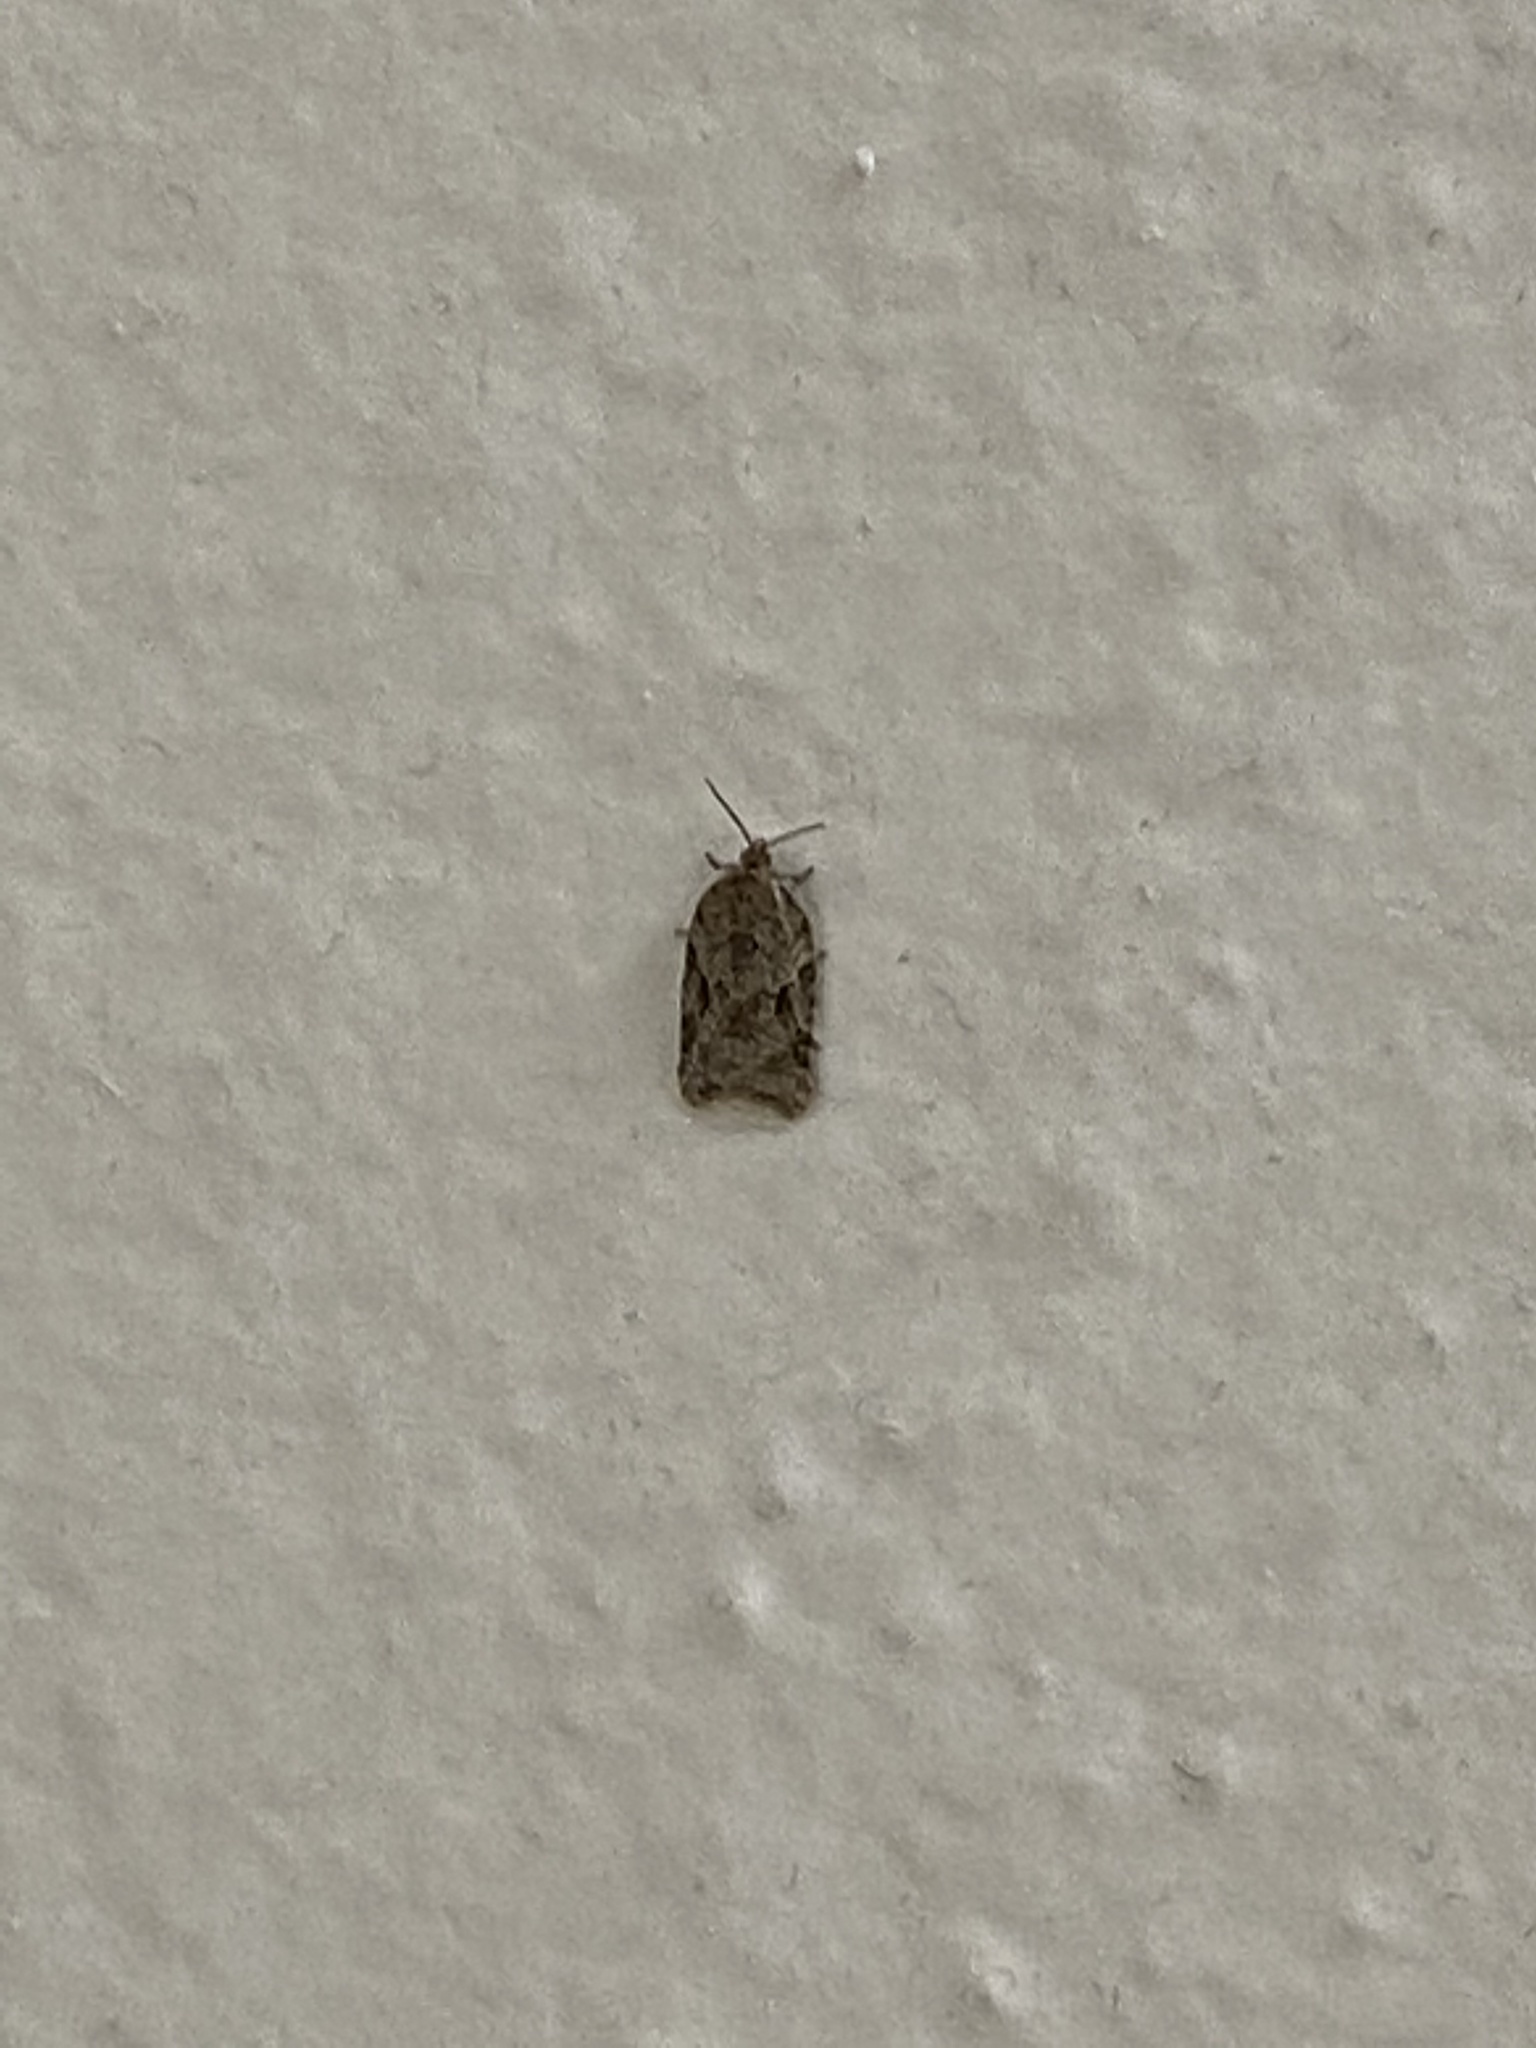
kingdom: Animalia
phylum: Arthropoda
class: Insecta
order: Lepidoptera
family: Tortricidae
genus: Choristoneura
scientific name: Choristoneura fumiferana
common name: Spruce budworm
